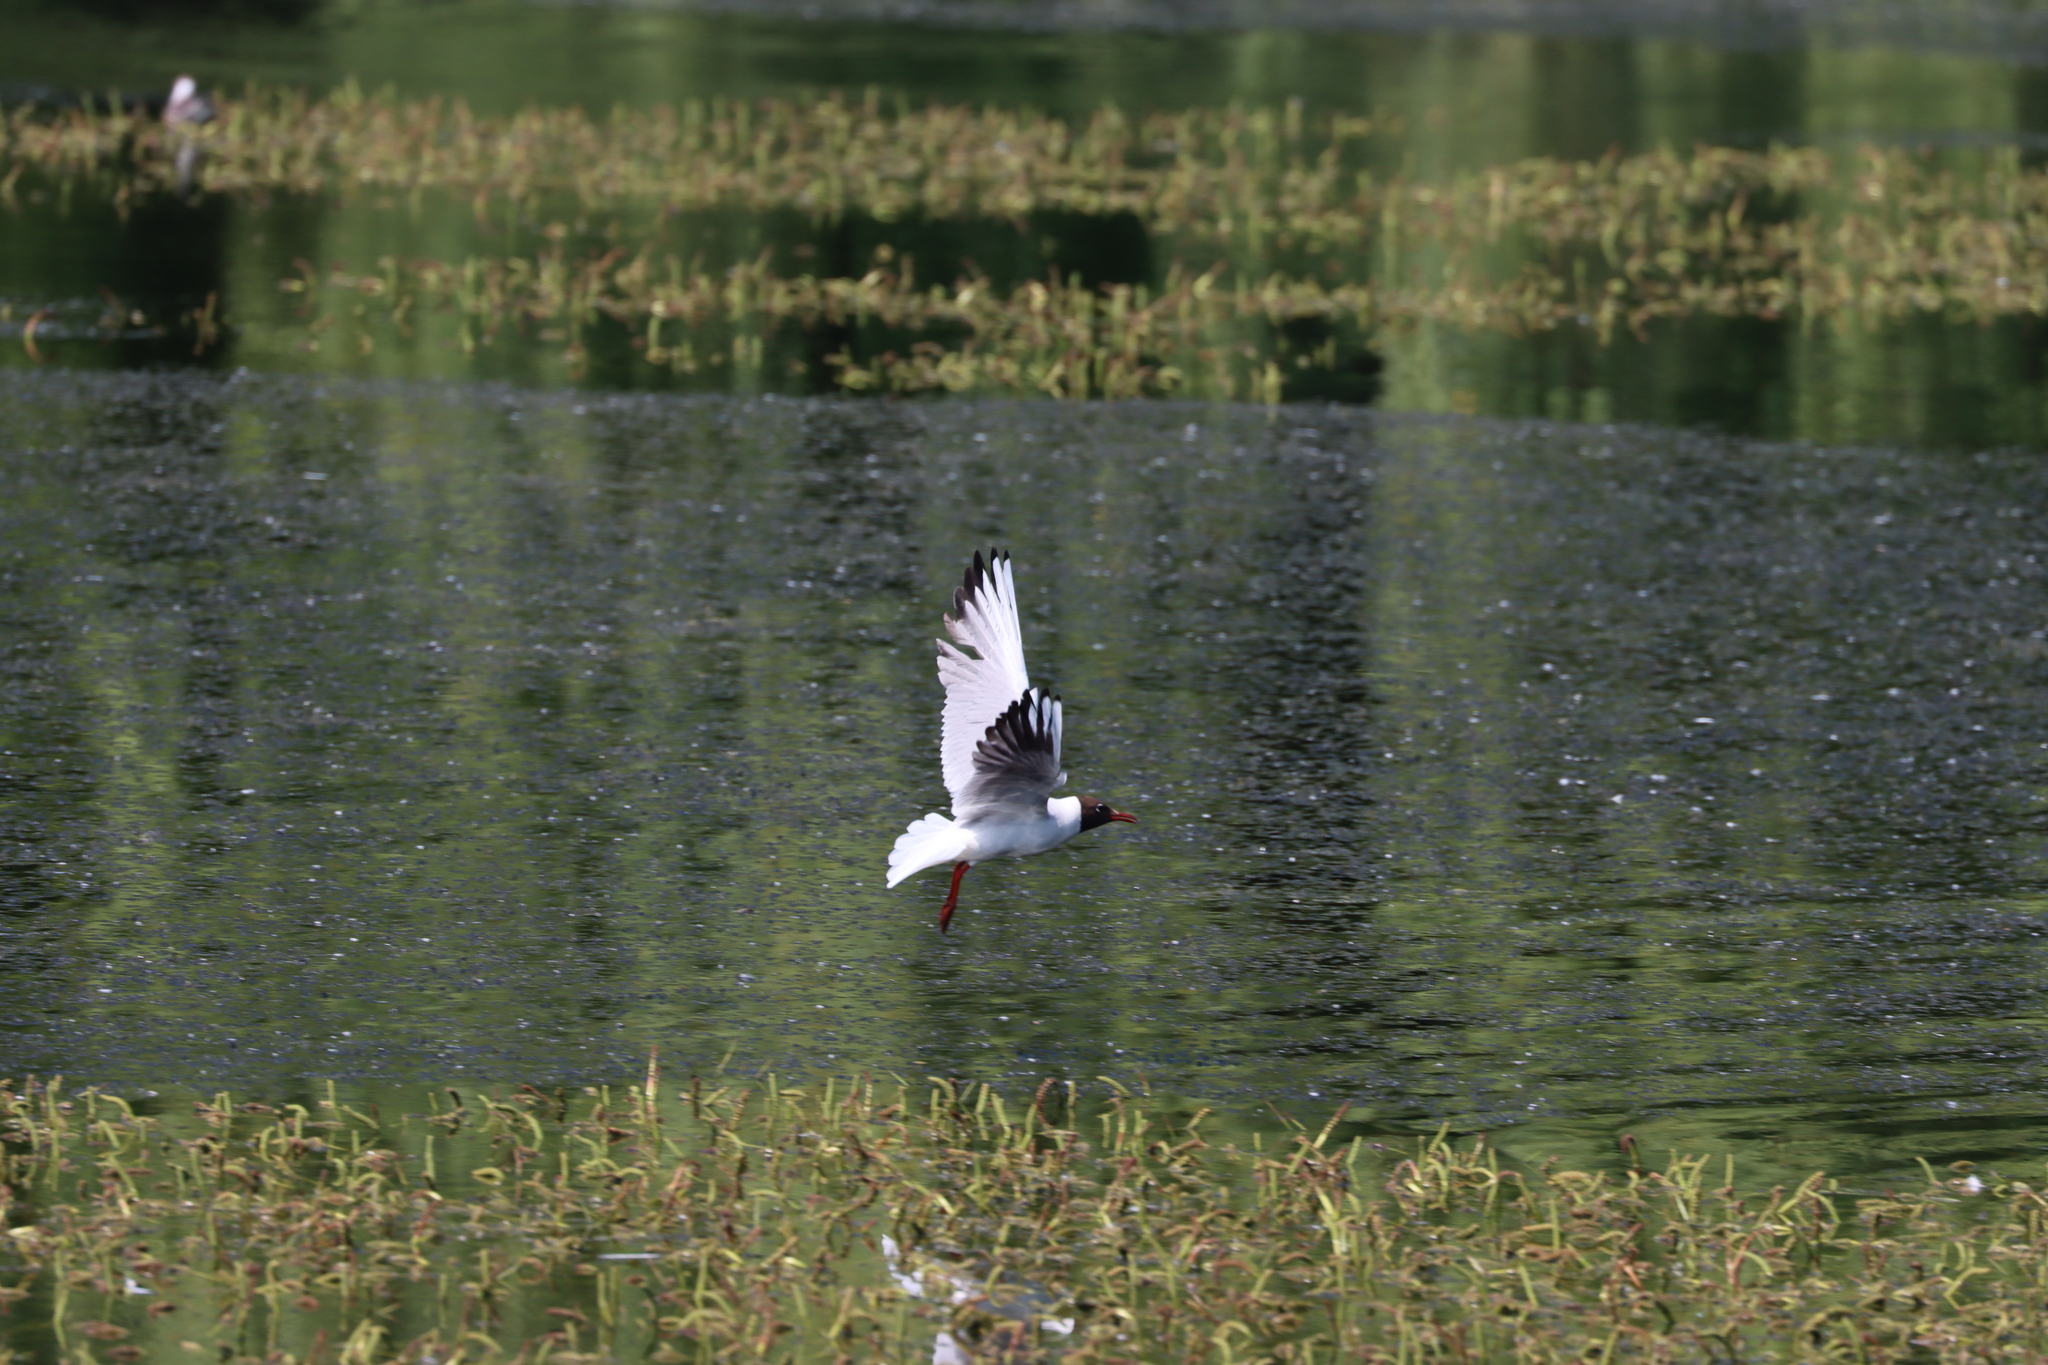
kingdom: Animalia
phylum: Chordata
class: Aves
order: Charadriiformes
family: Laridae
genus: Chroicocephalus
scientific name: Chroicocephalus ridibundus
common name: Black-headed gull
